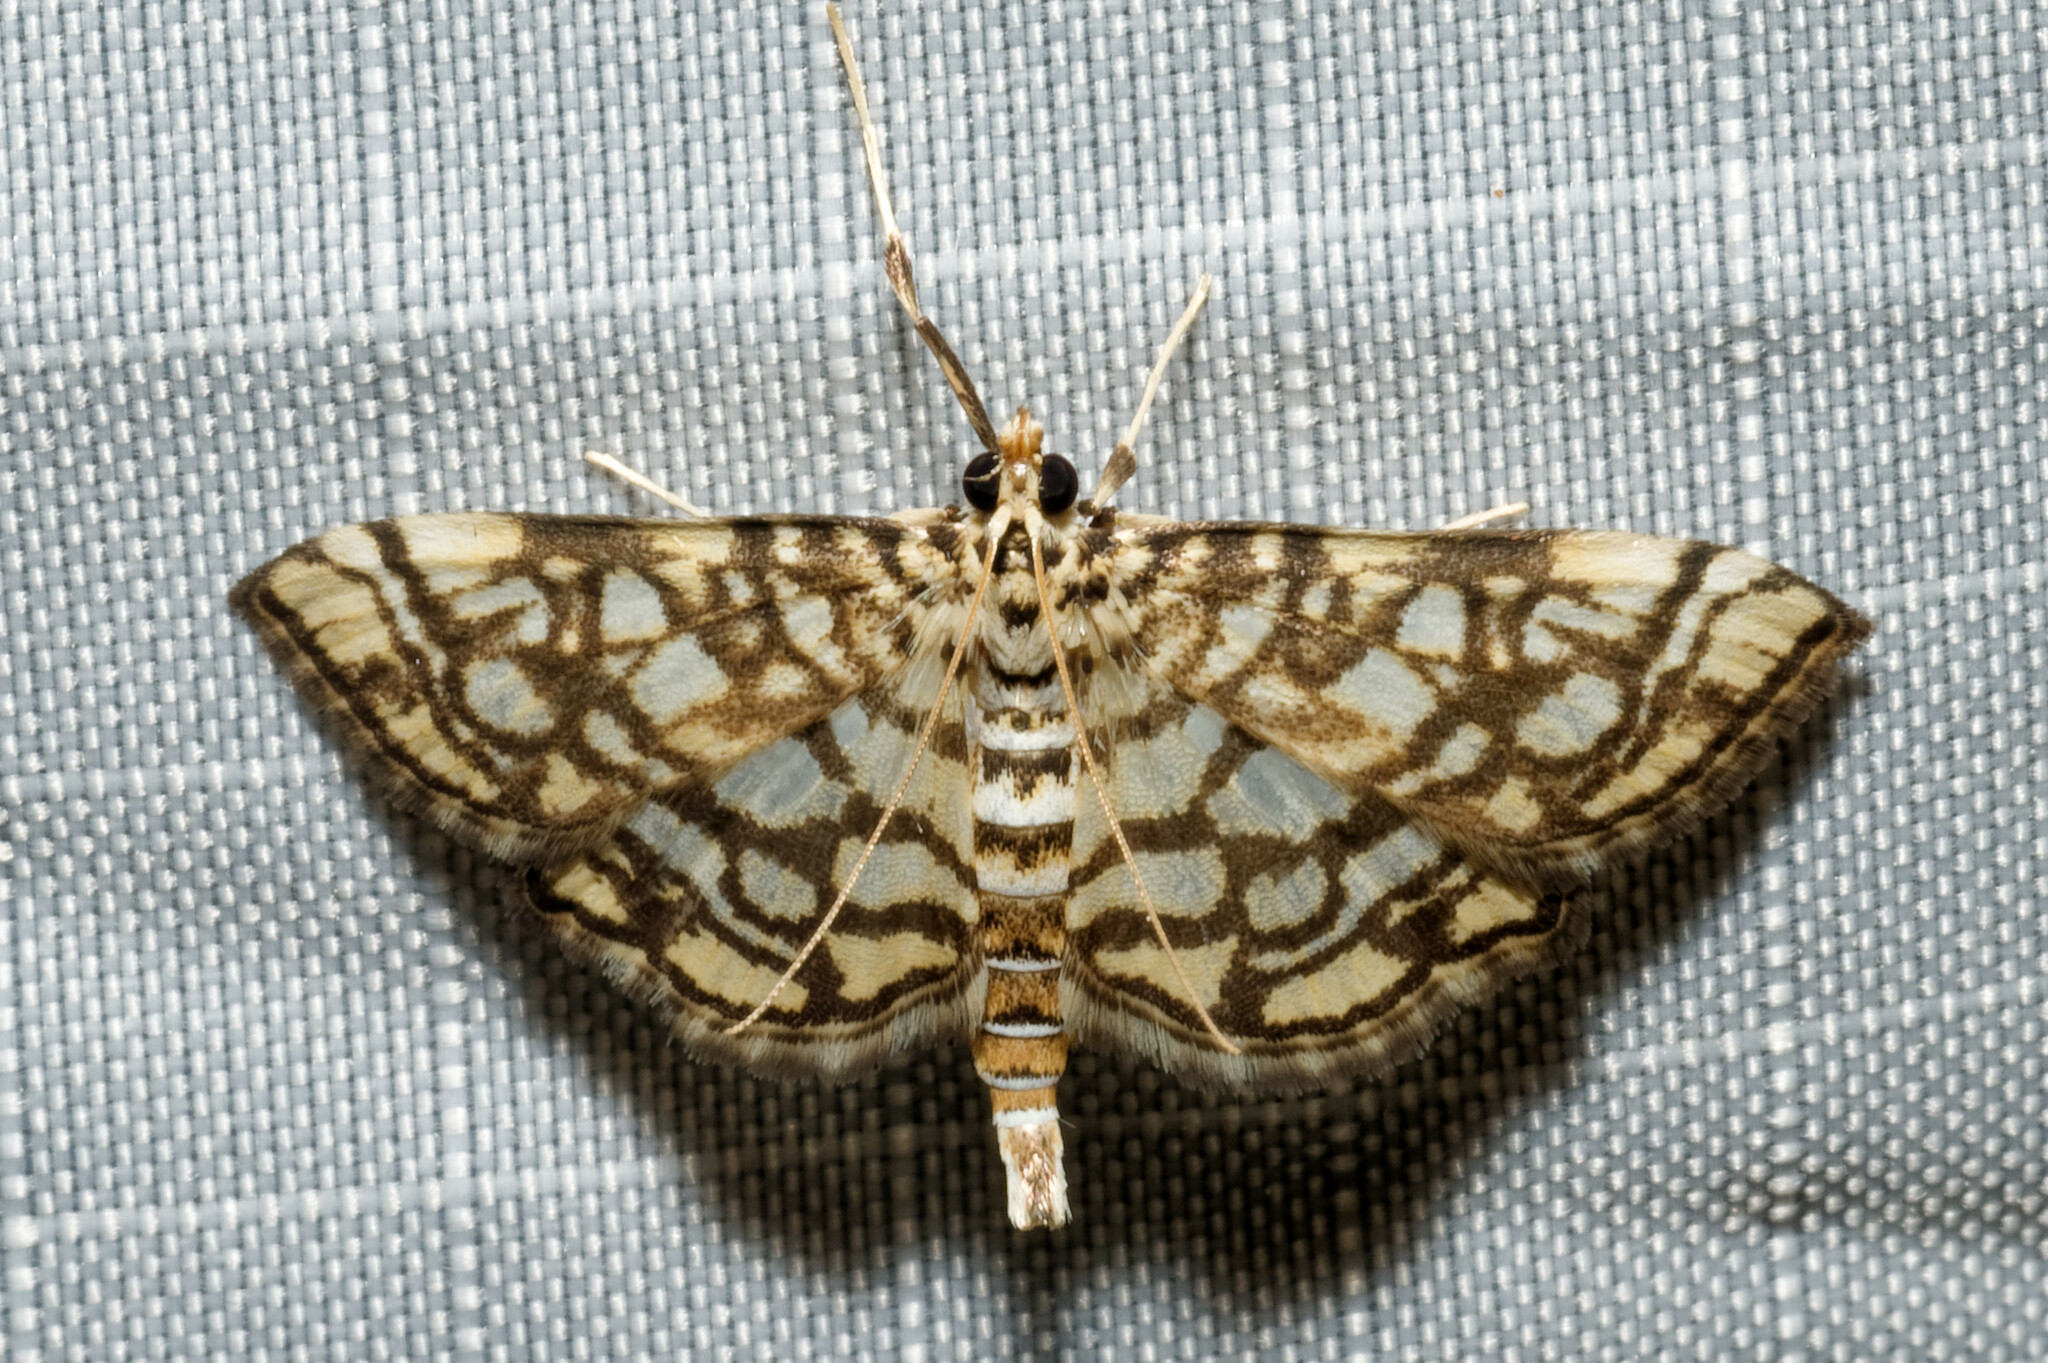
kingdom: Animalia
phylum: Arthropoda
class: Insecta
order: Lepidoptera
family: Crambidae
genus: Lygropia
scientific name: Lygropia rivulalis
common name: Bog lygropia moth
